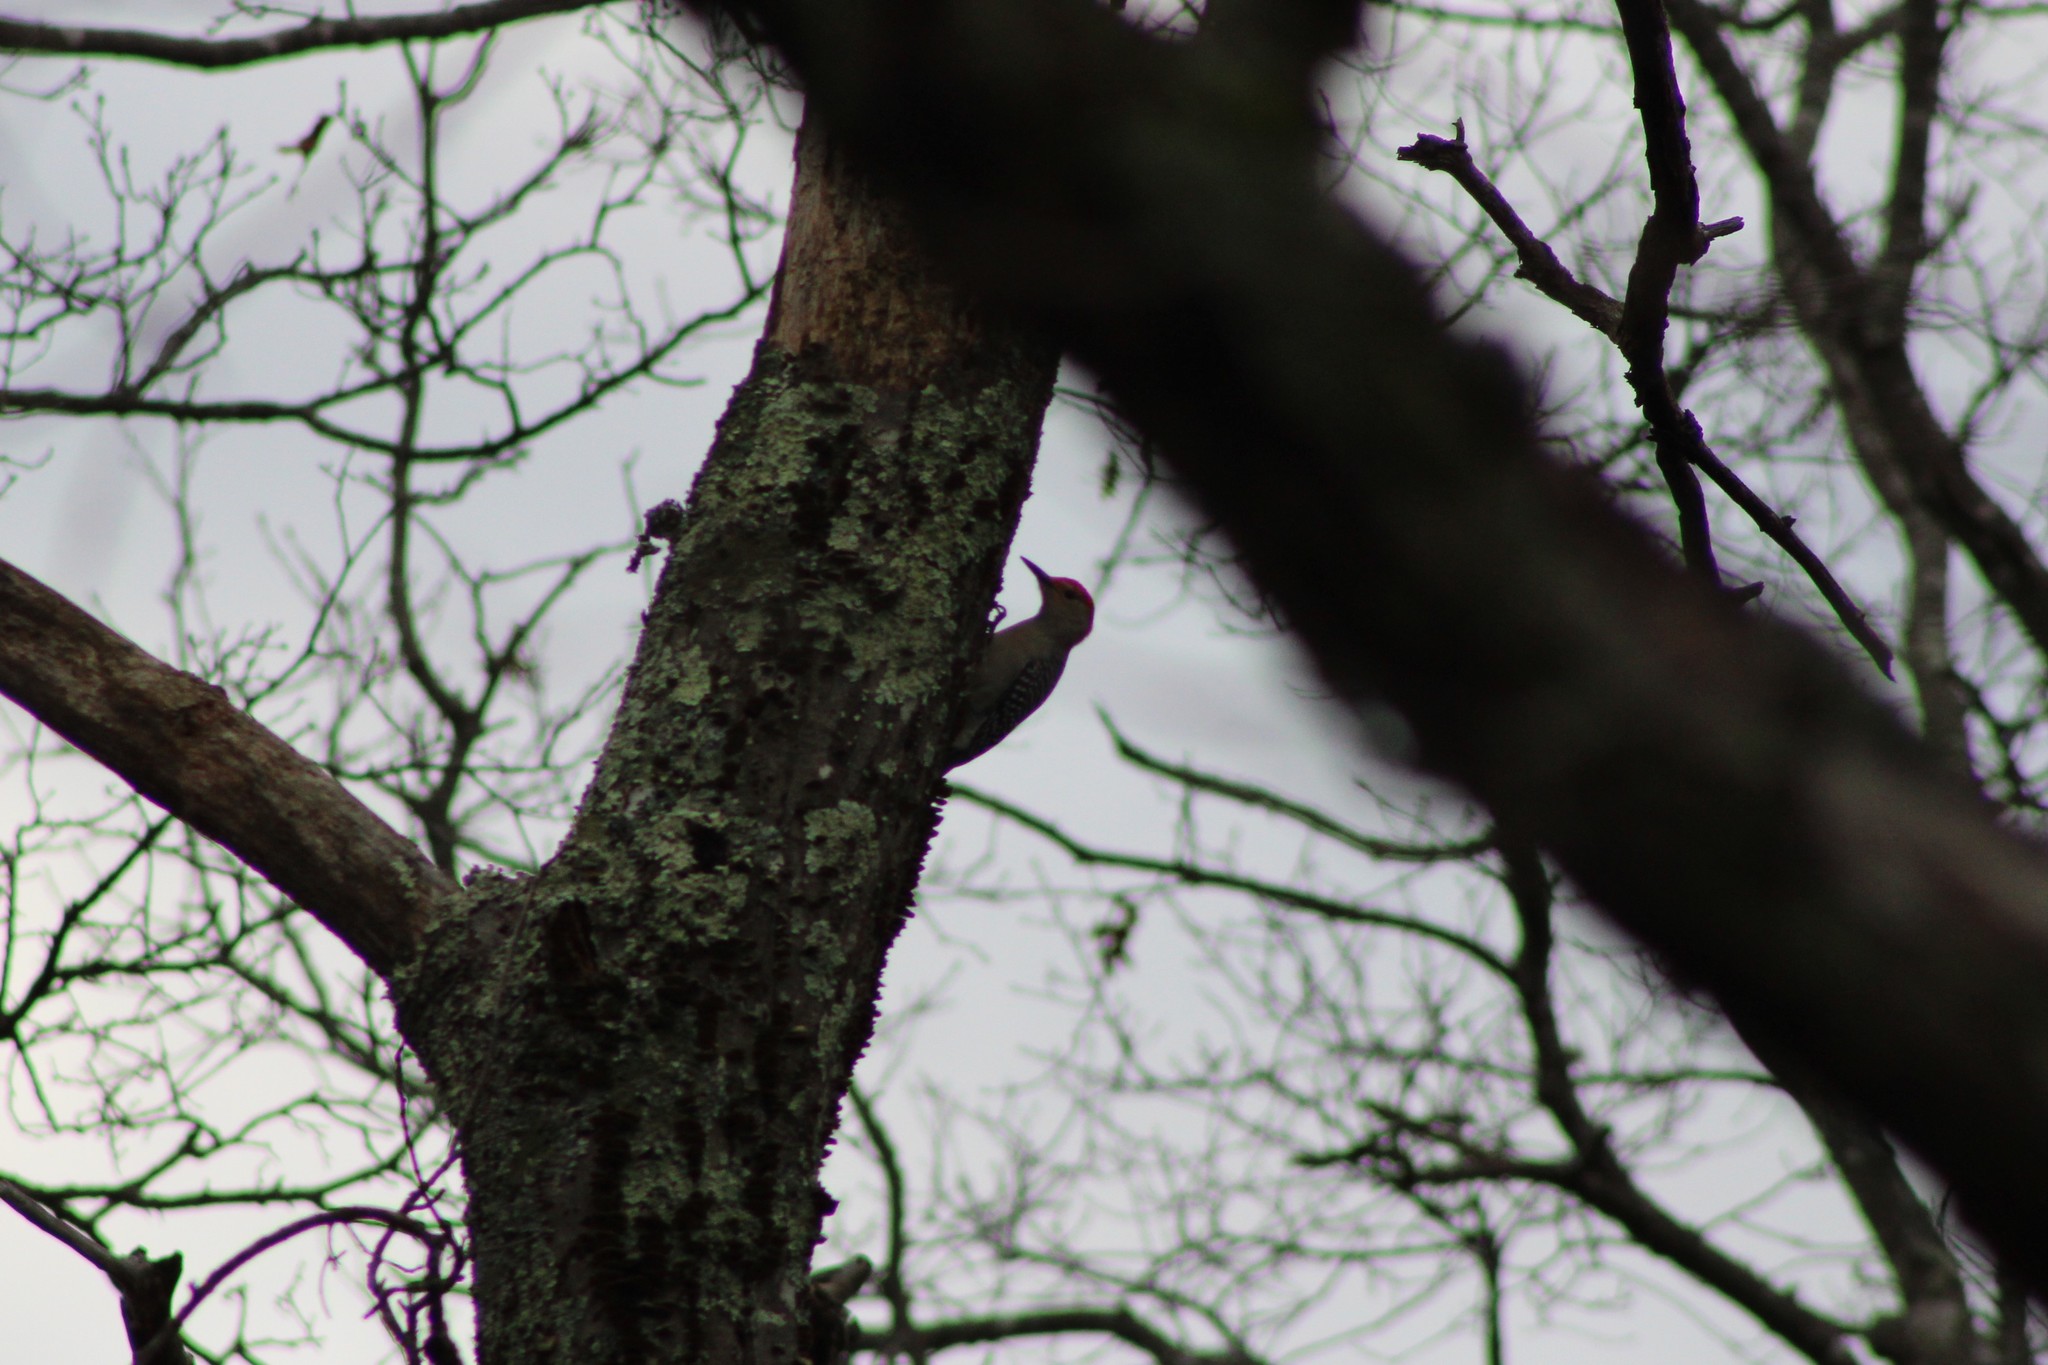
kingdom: Animalia
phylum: Chordata
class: Aves
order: Piciformes
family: Picidae
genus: Melanerpes
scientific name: Melanerpes carolinus
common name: Red-bellied woodpecker
